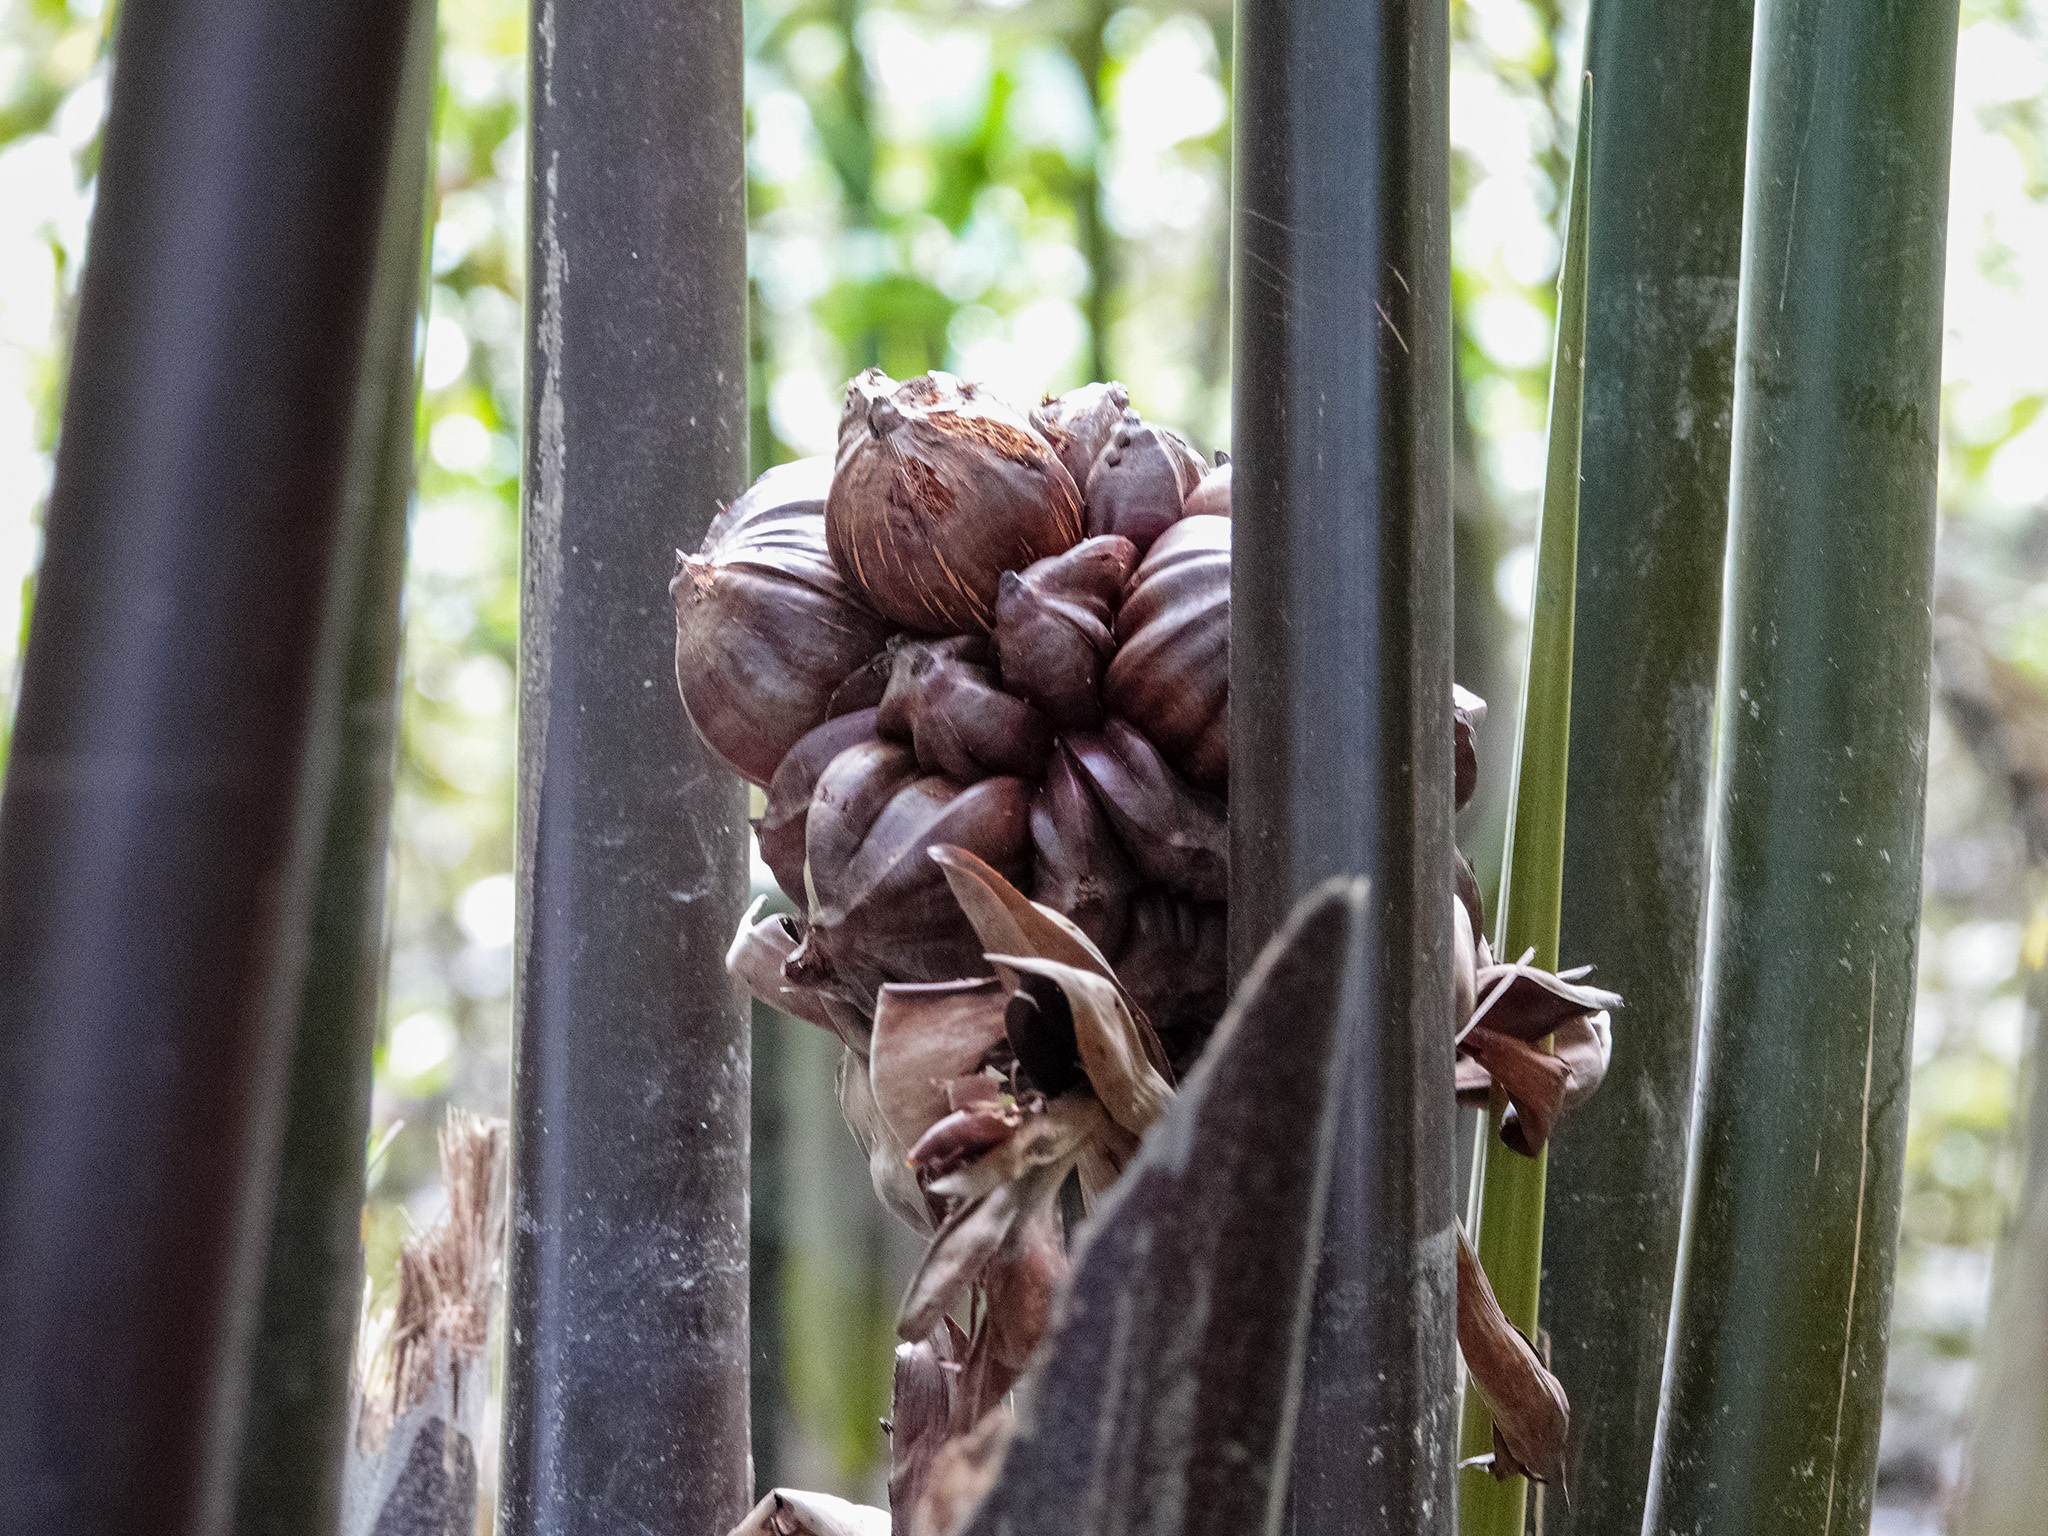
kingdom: Plantae
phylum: Tracheophyta
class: Liliopsida
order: Arecales
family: Arecaceae
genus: Nypa
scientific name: Nypa fruticans
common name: Mangrove palm
